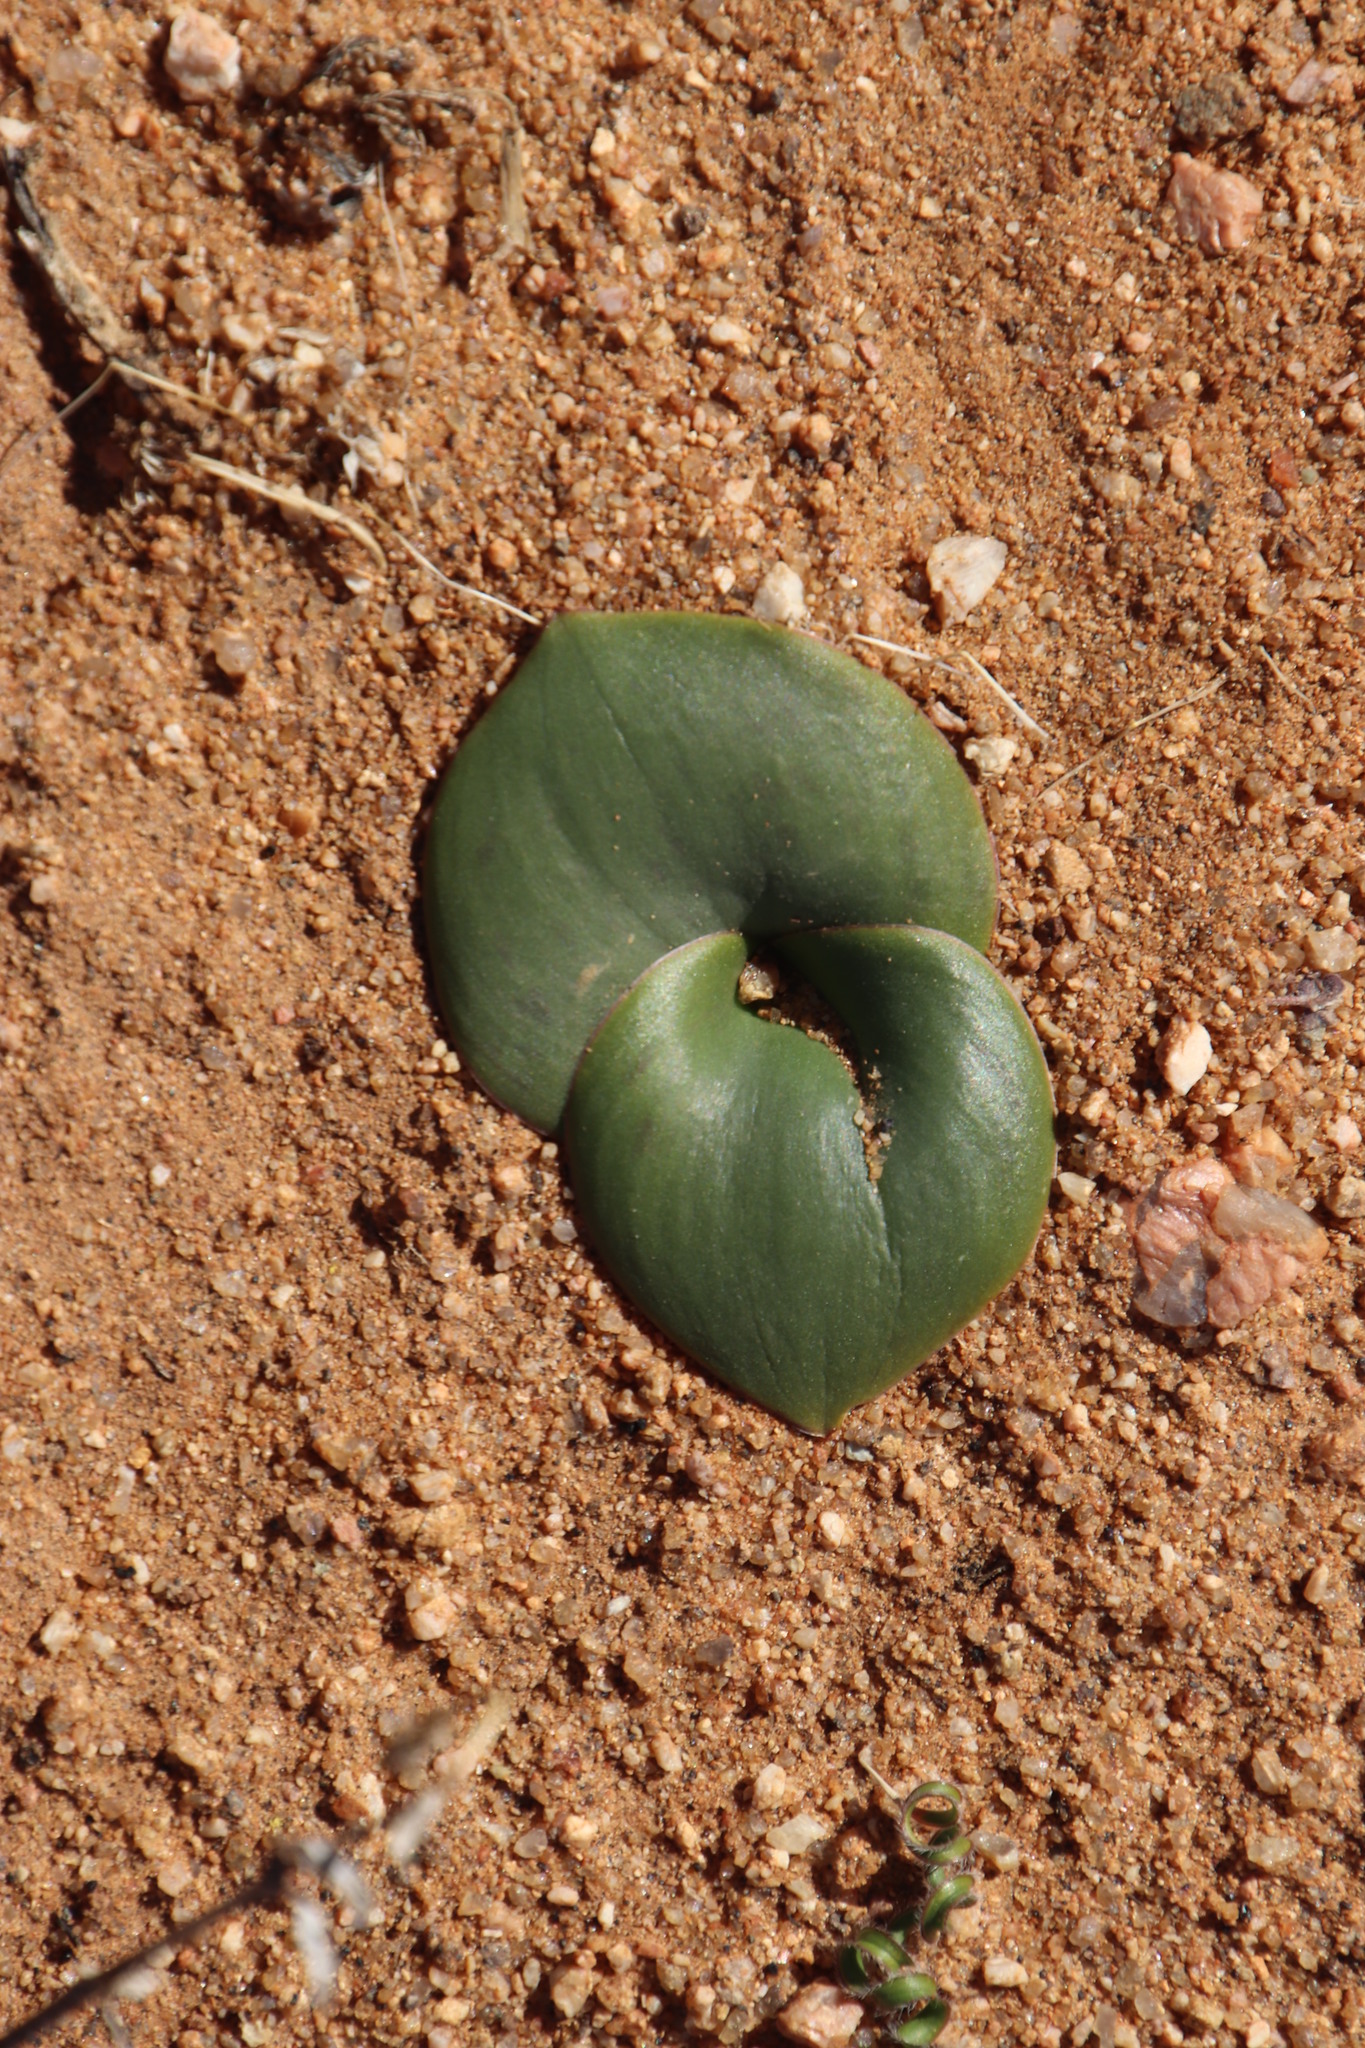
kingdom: Plantae
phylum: Tracheophyta
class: Liliopsida
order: Asparagales
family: Orchidaceae
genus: Holothrix
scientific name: Holothrix secunda
